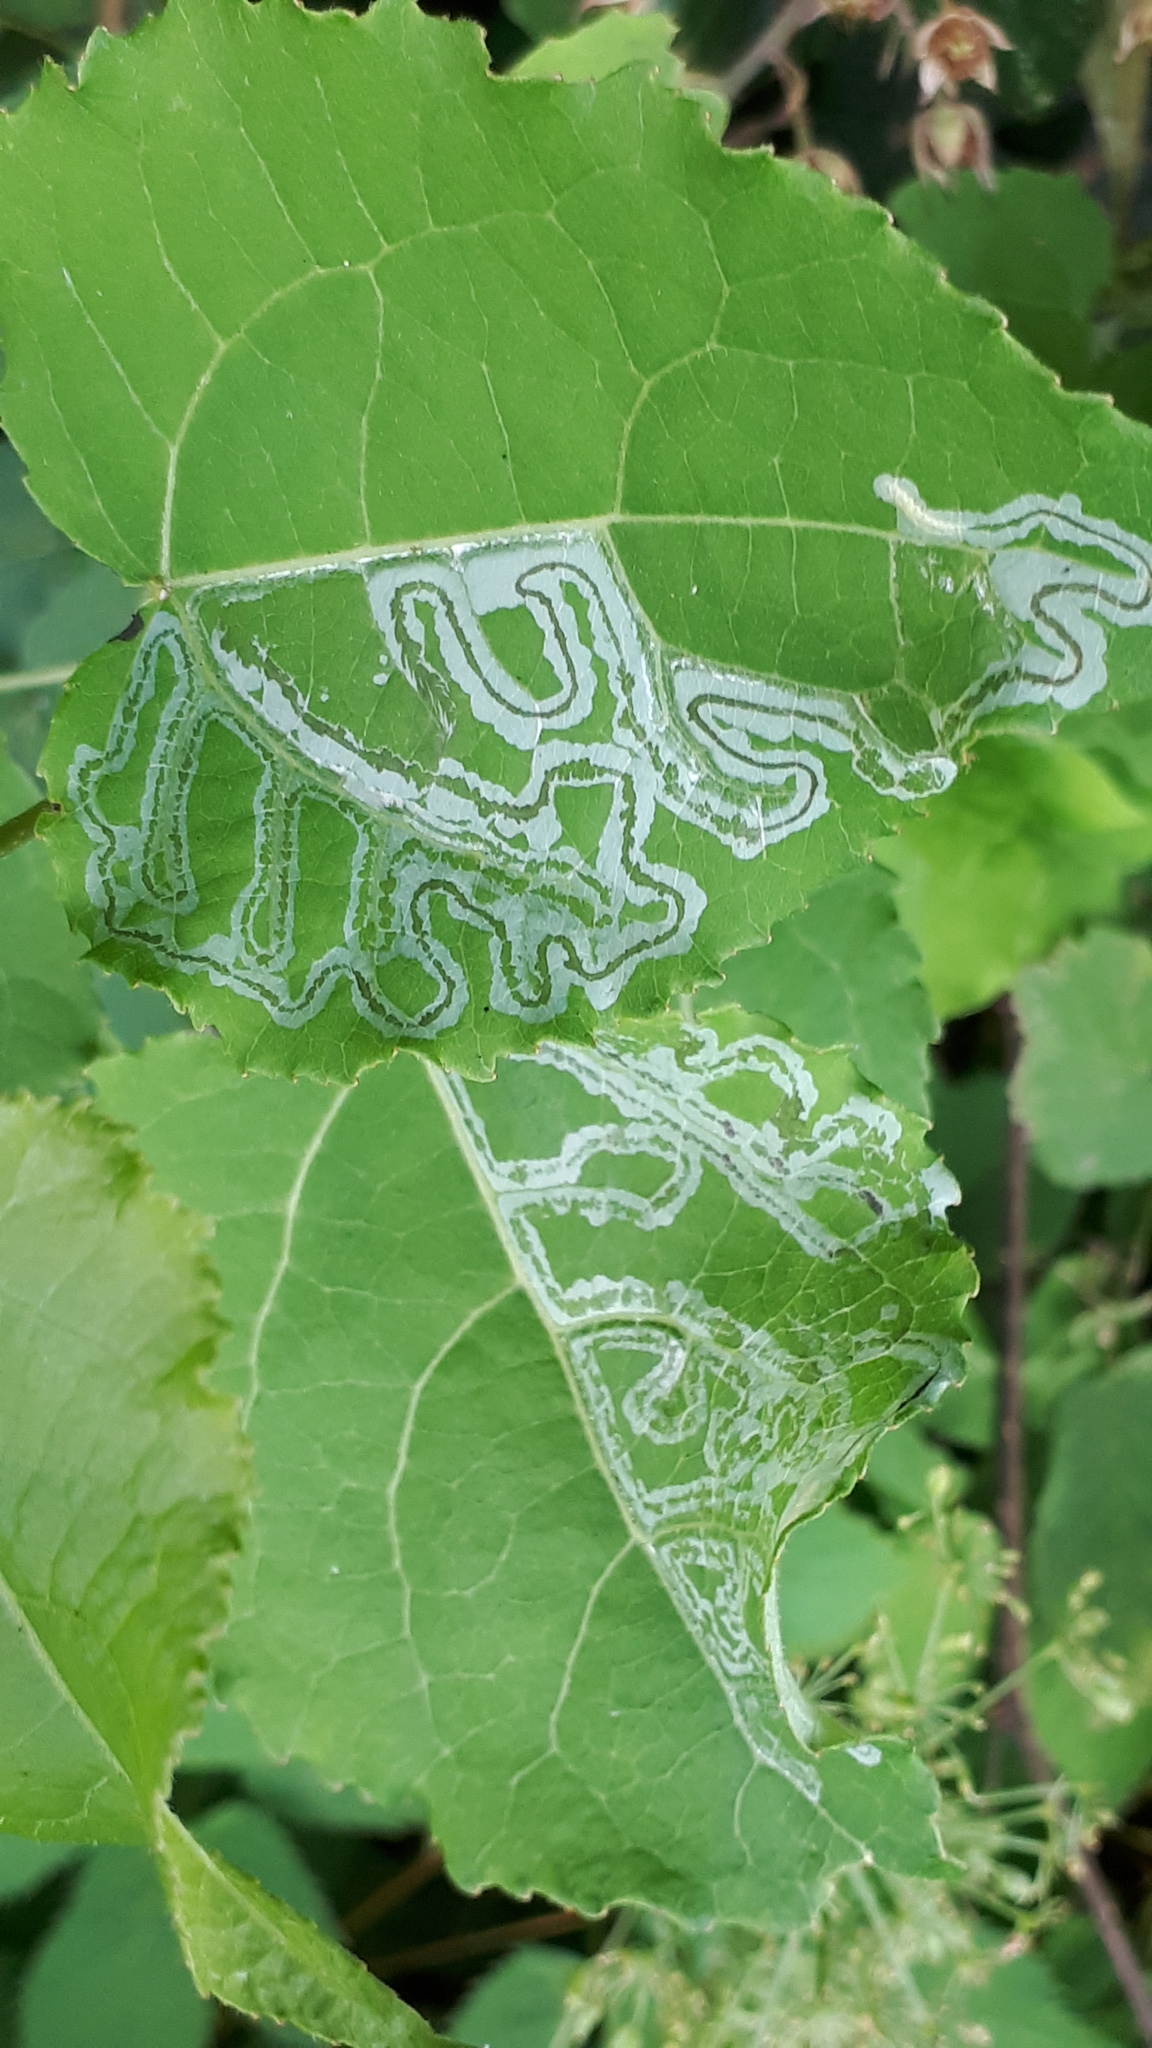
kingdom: Animalia
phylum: Arthropoda
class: Insecta
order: Lepidoptera
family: Gracillariidae
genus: Phyllocnistis
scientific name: Phyllocnistis labyrinthella
